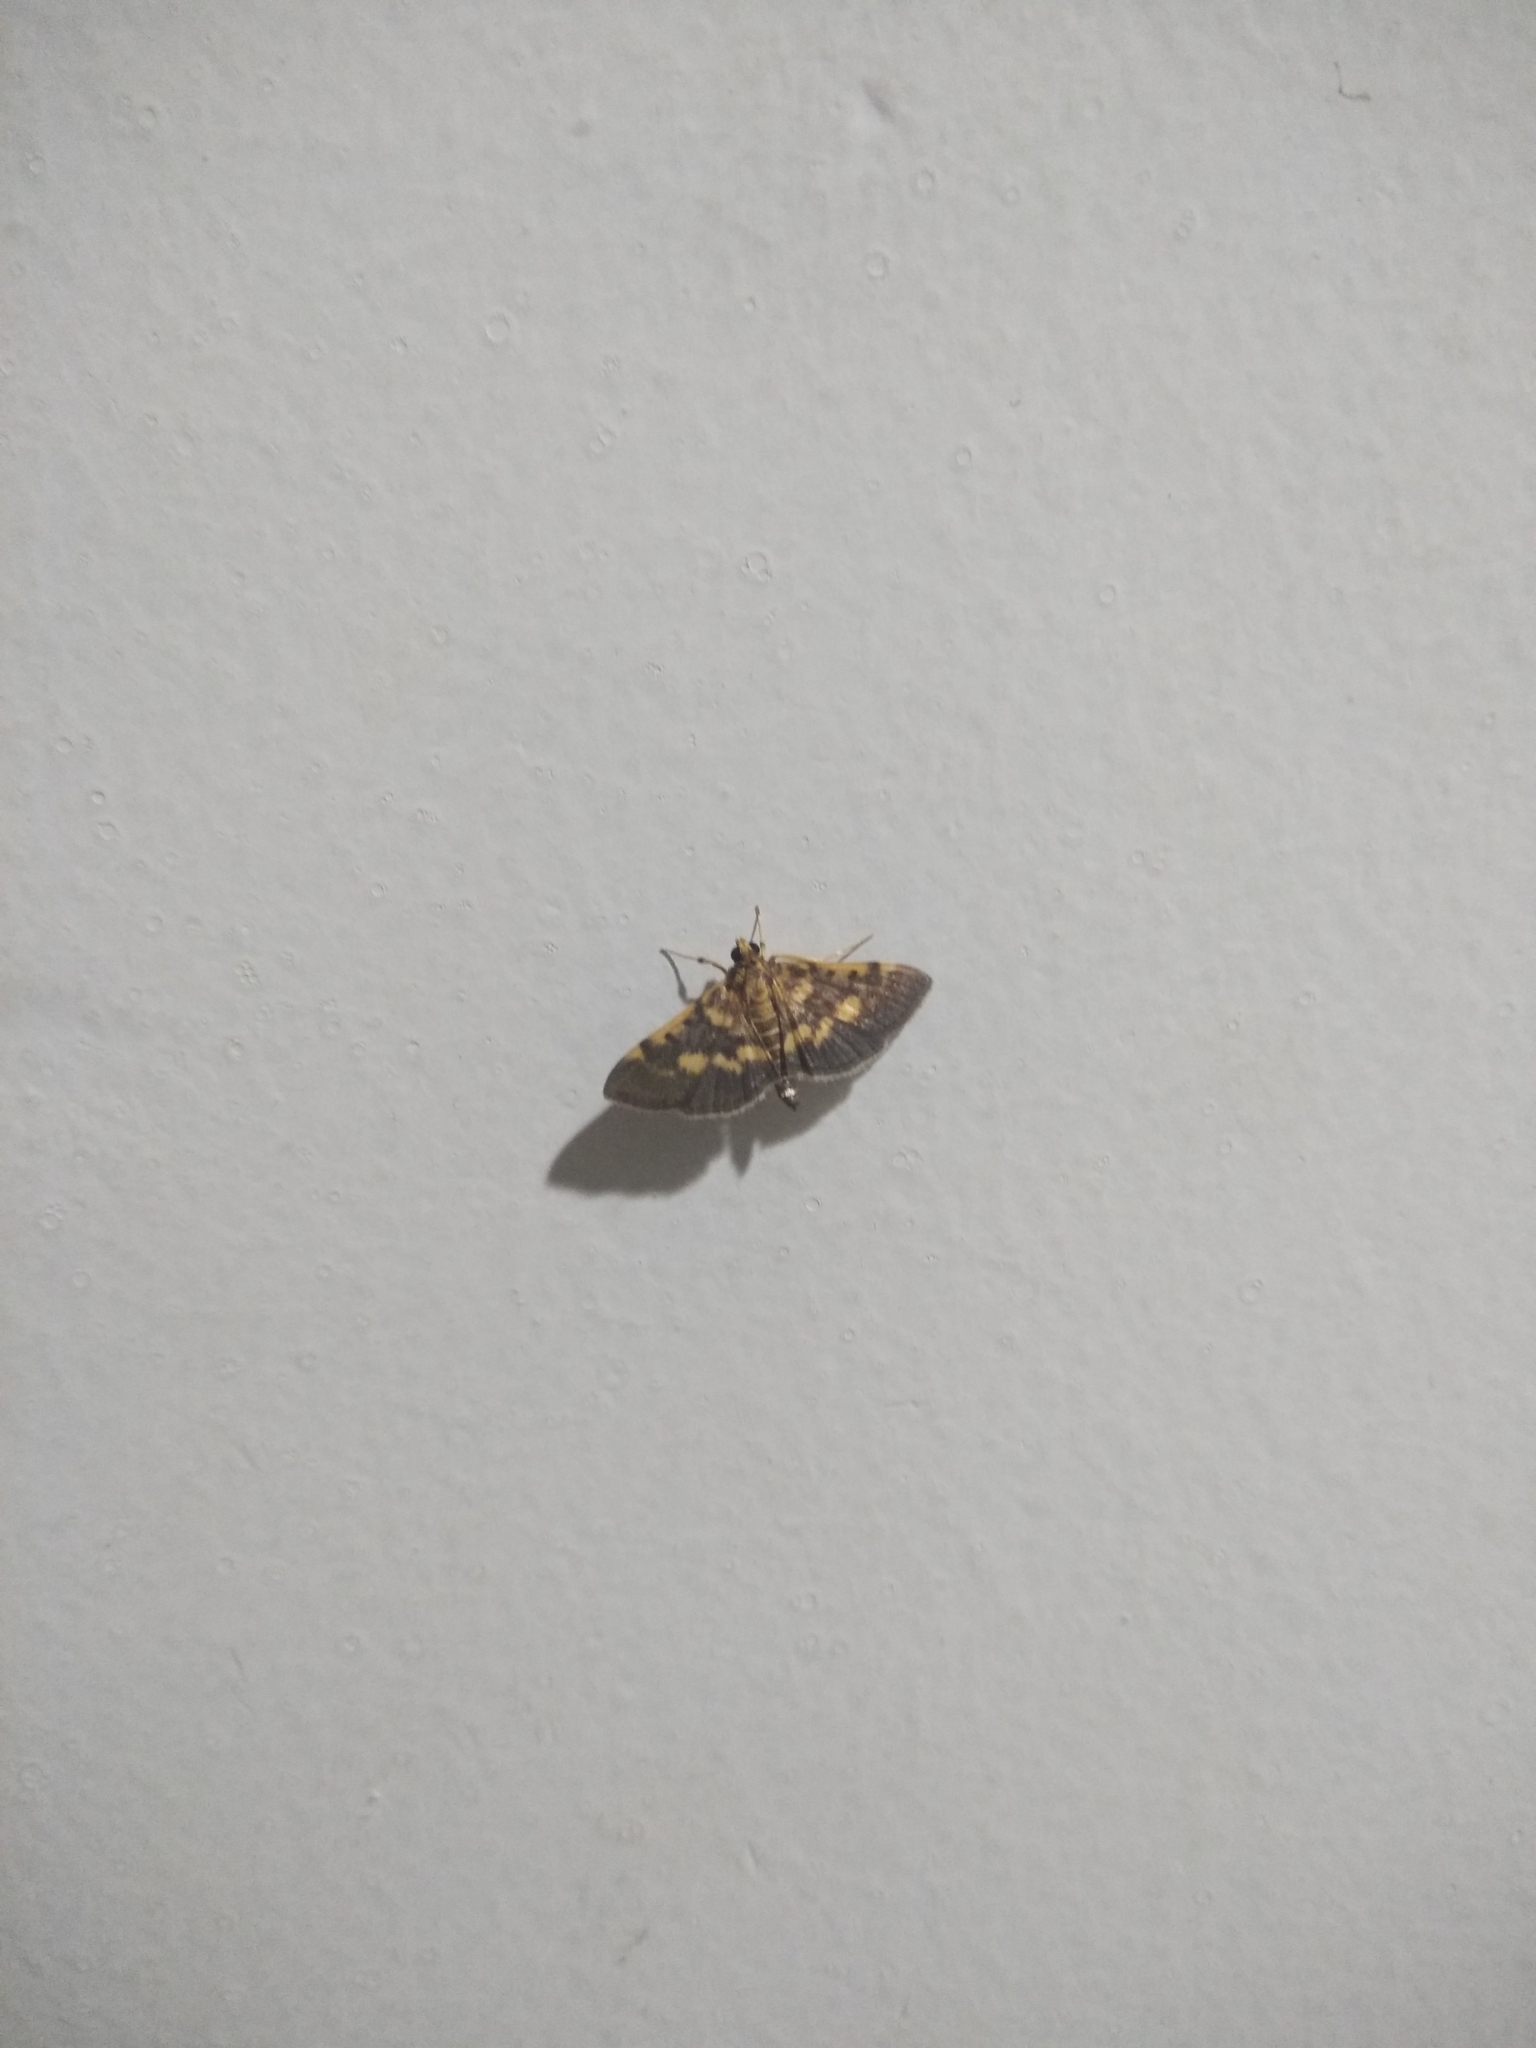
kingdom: Animalia
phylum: Arthropoda
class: Insecta
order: Lepidoptera
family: Crambidae
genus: Omiodes
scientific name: Omiodes diemenalis
